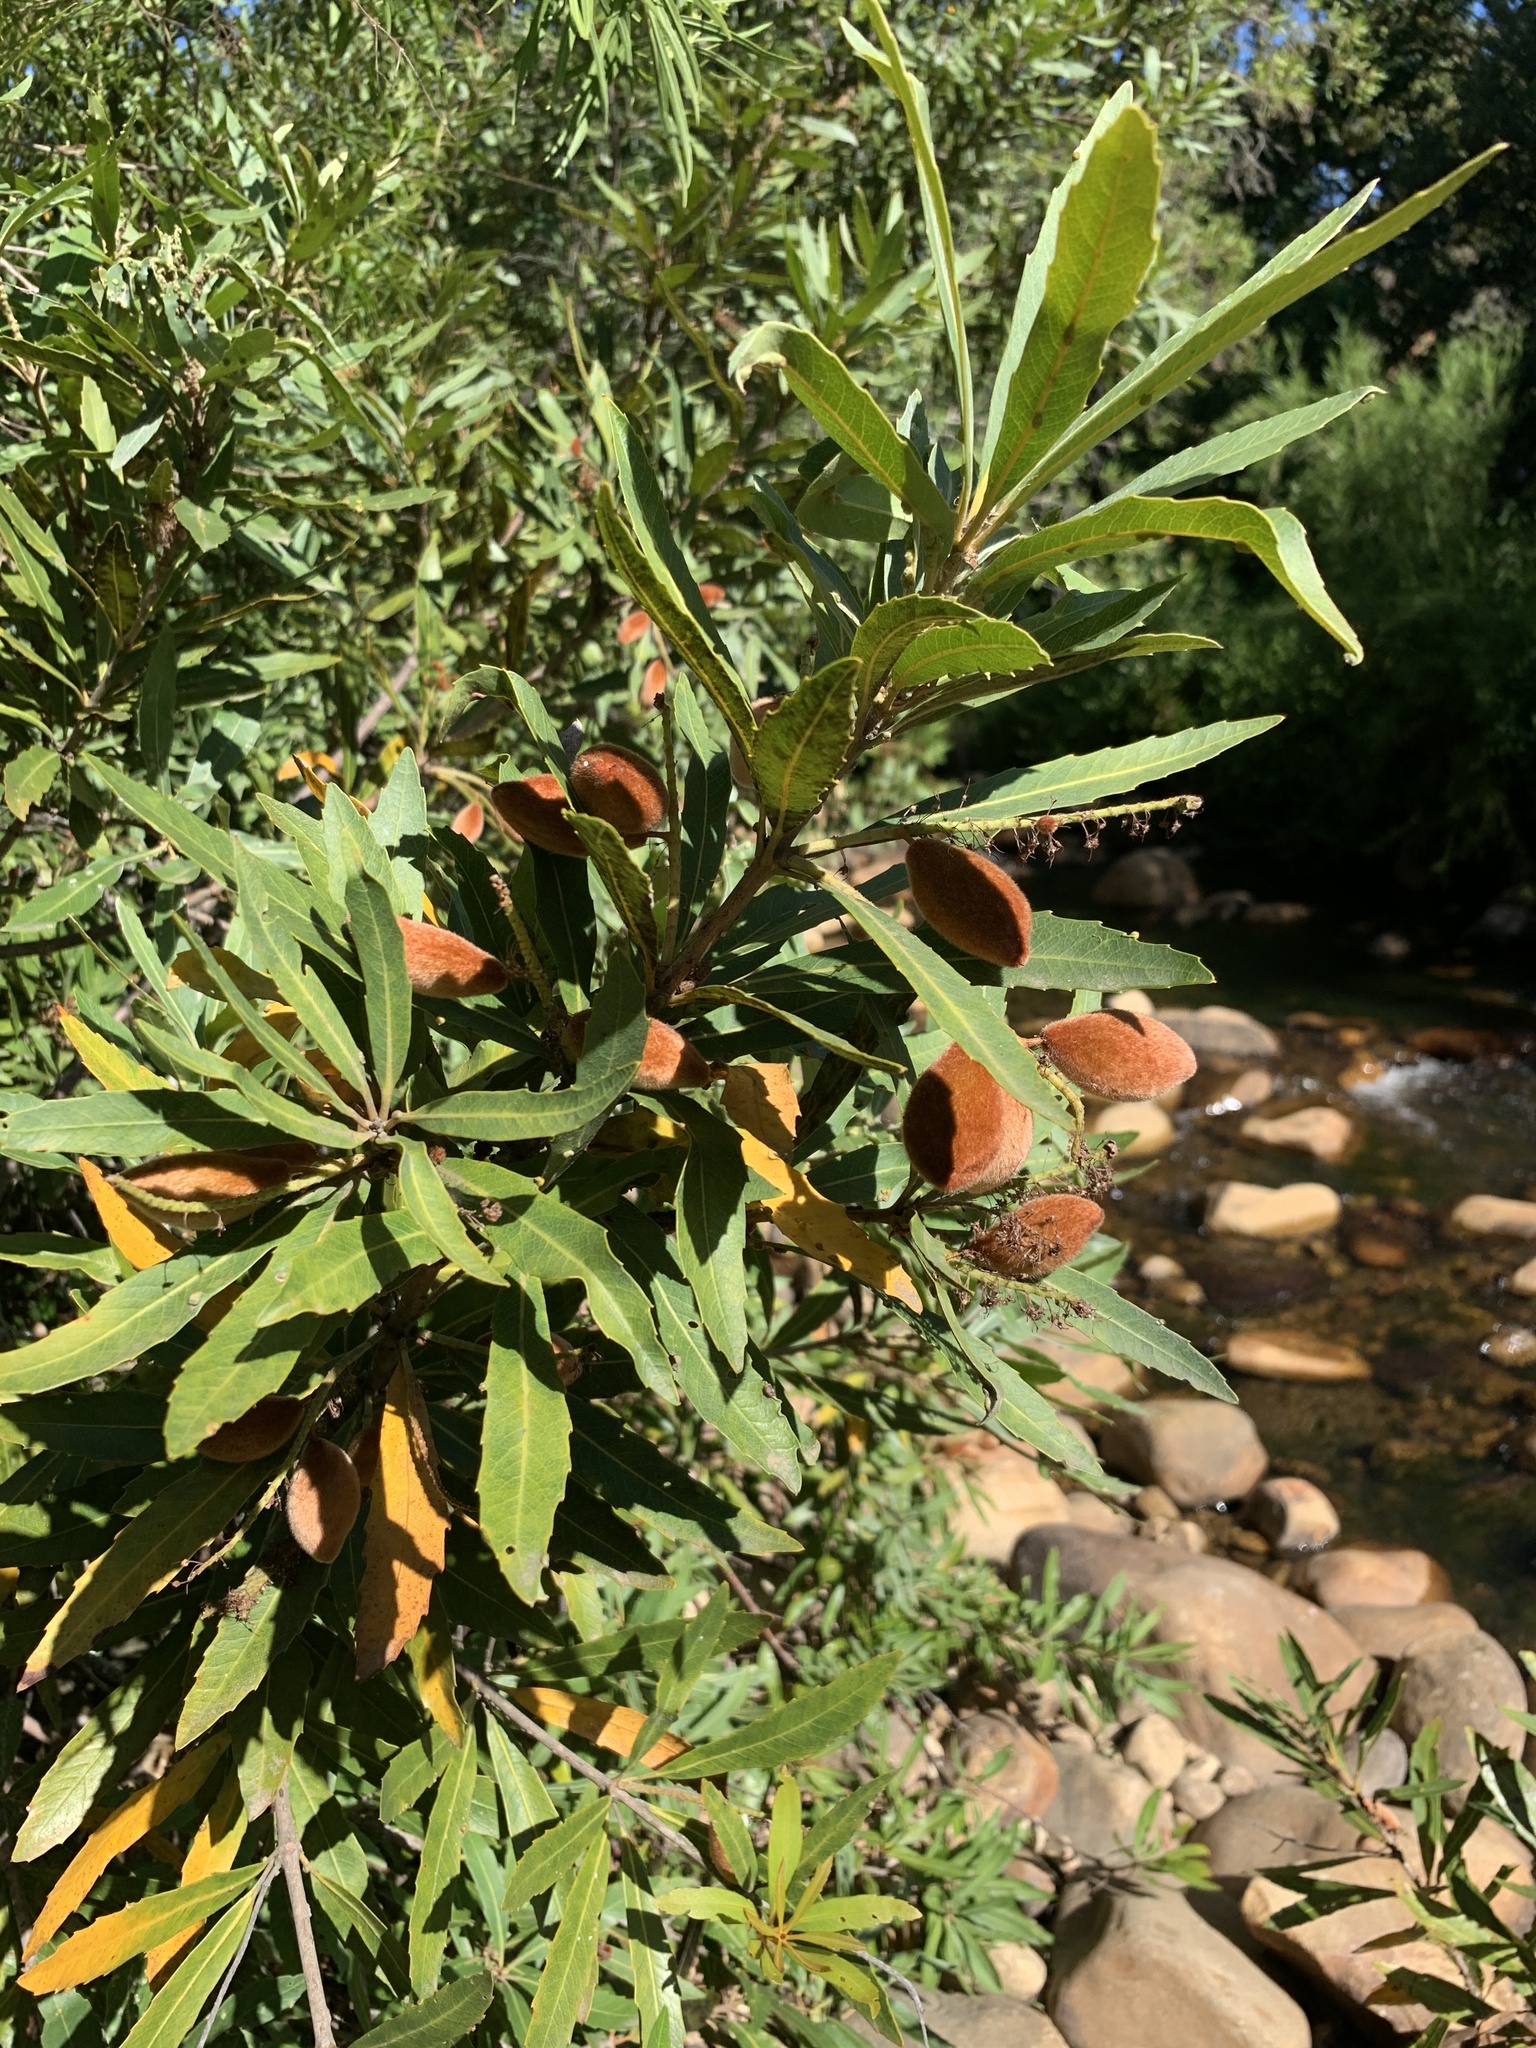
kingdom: Plantae
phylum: Tracheophyta
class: Magnoliopsida
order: Proteales
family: Proteaceae
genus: Brabejum
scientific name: Brabejum stellatifolium
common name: Wild almond
